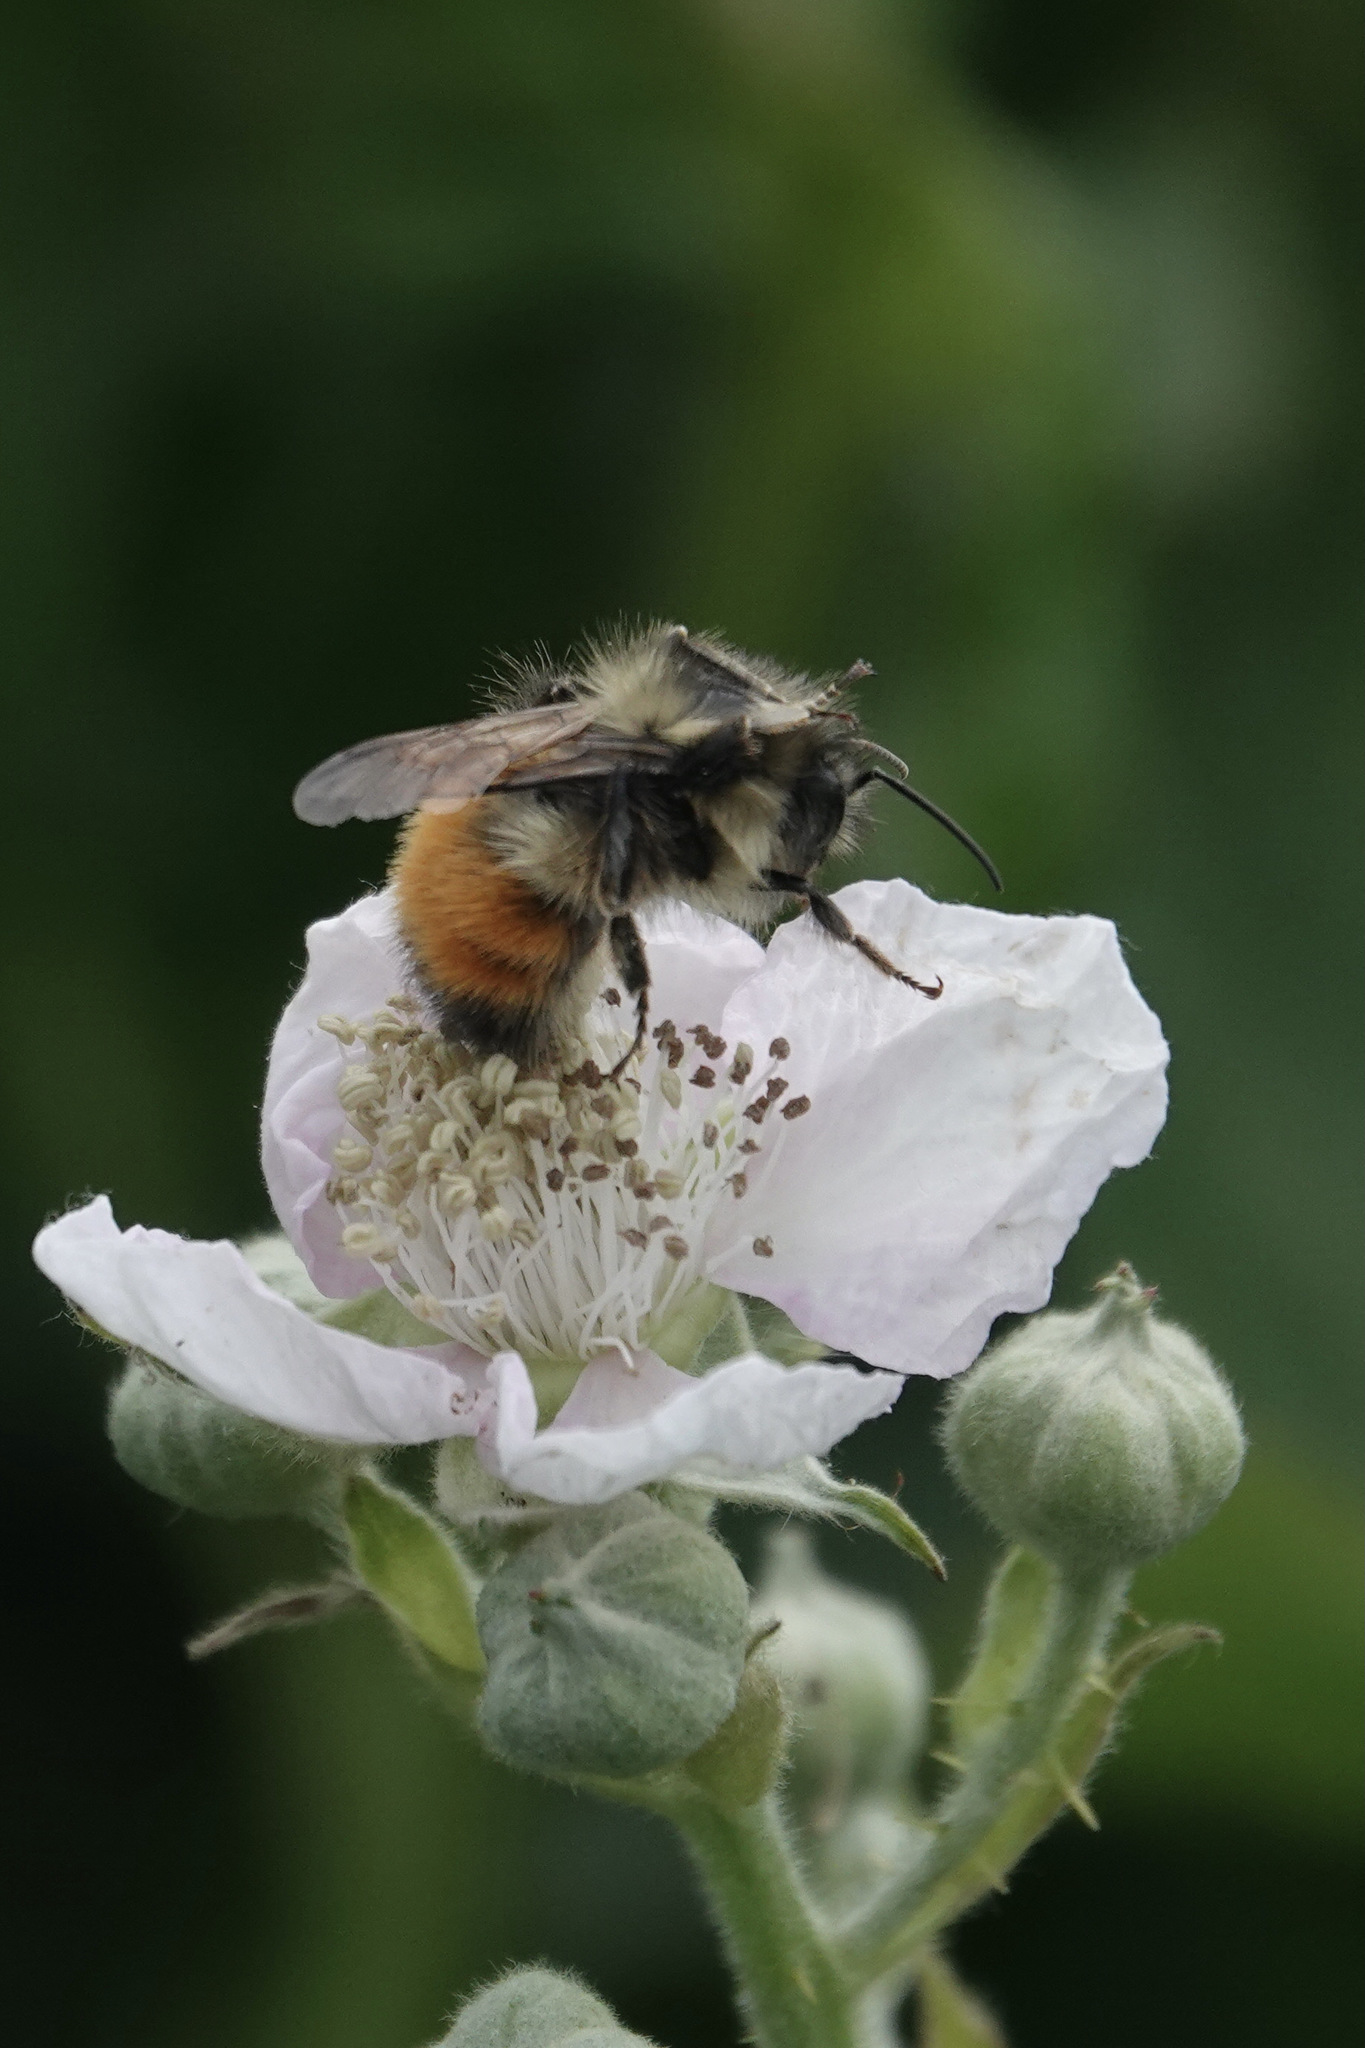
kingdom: Animalia
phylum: Arthropoda
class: Insecta
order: Hymenoptera
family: Apidae
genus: Bombus
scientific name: Bombus melanopygus
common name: Black tail bumble bee
